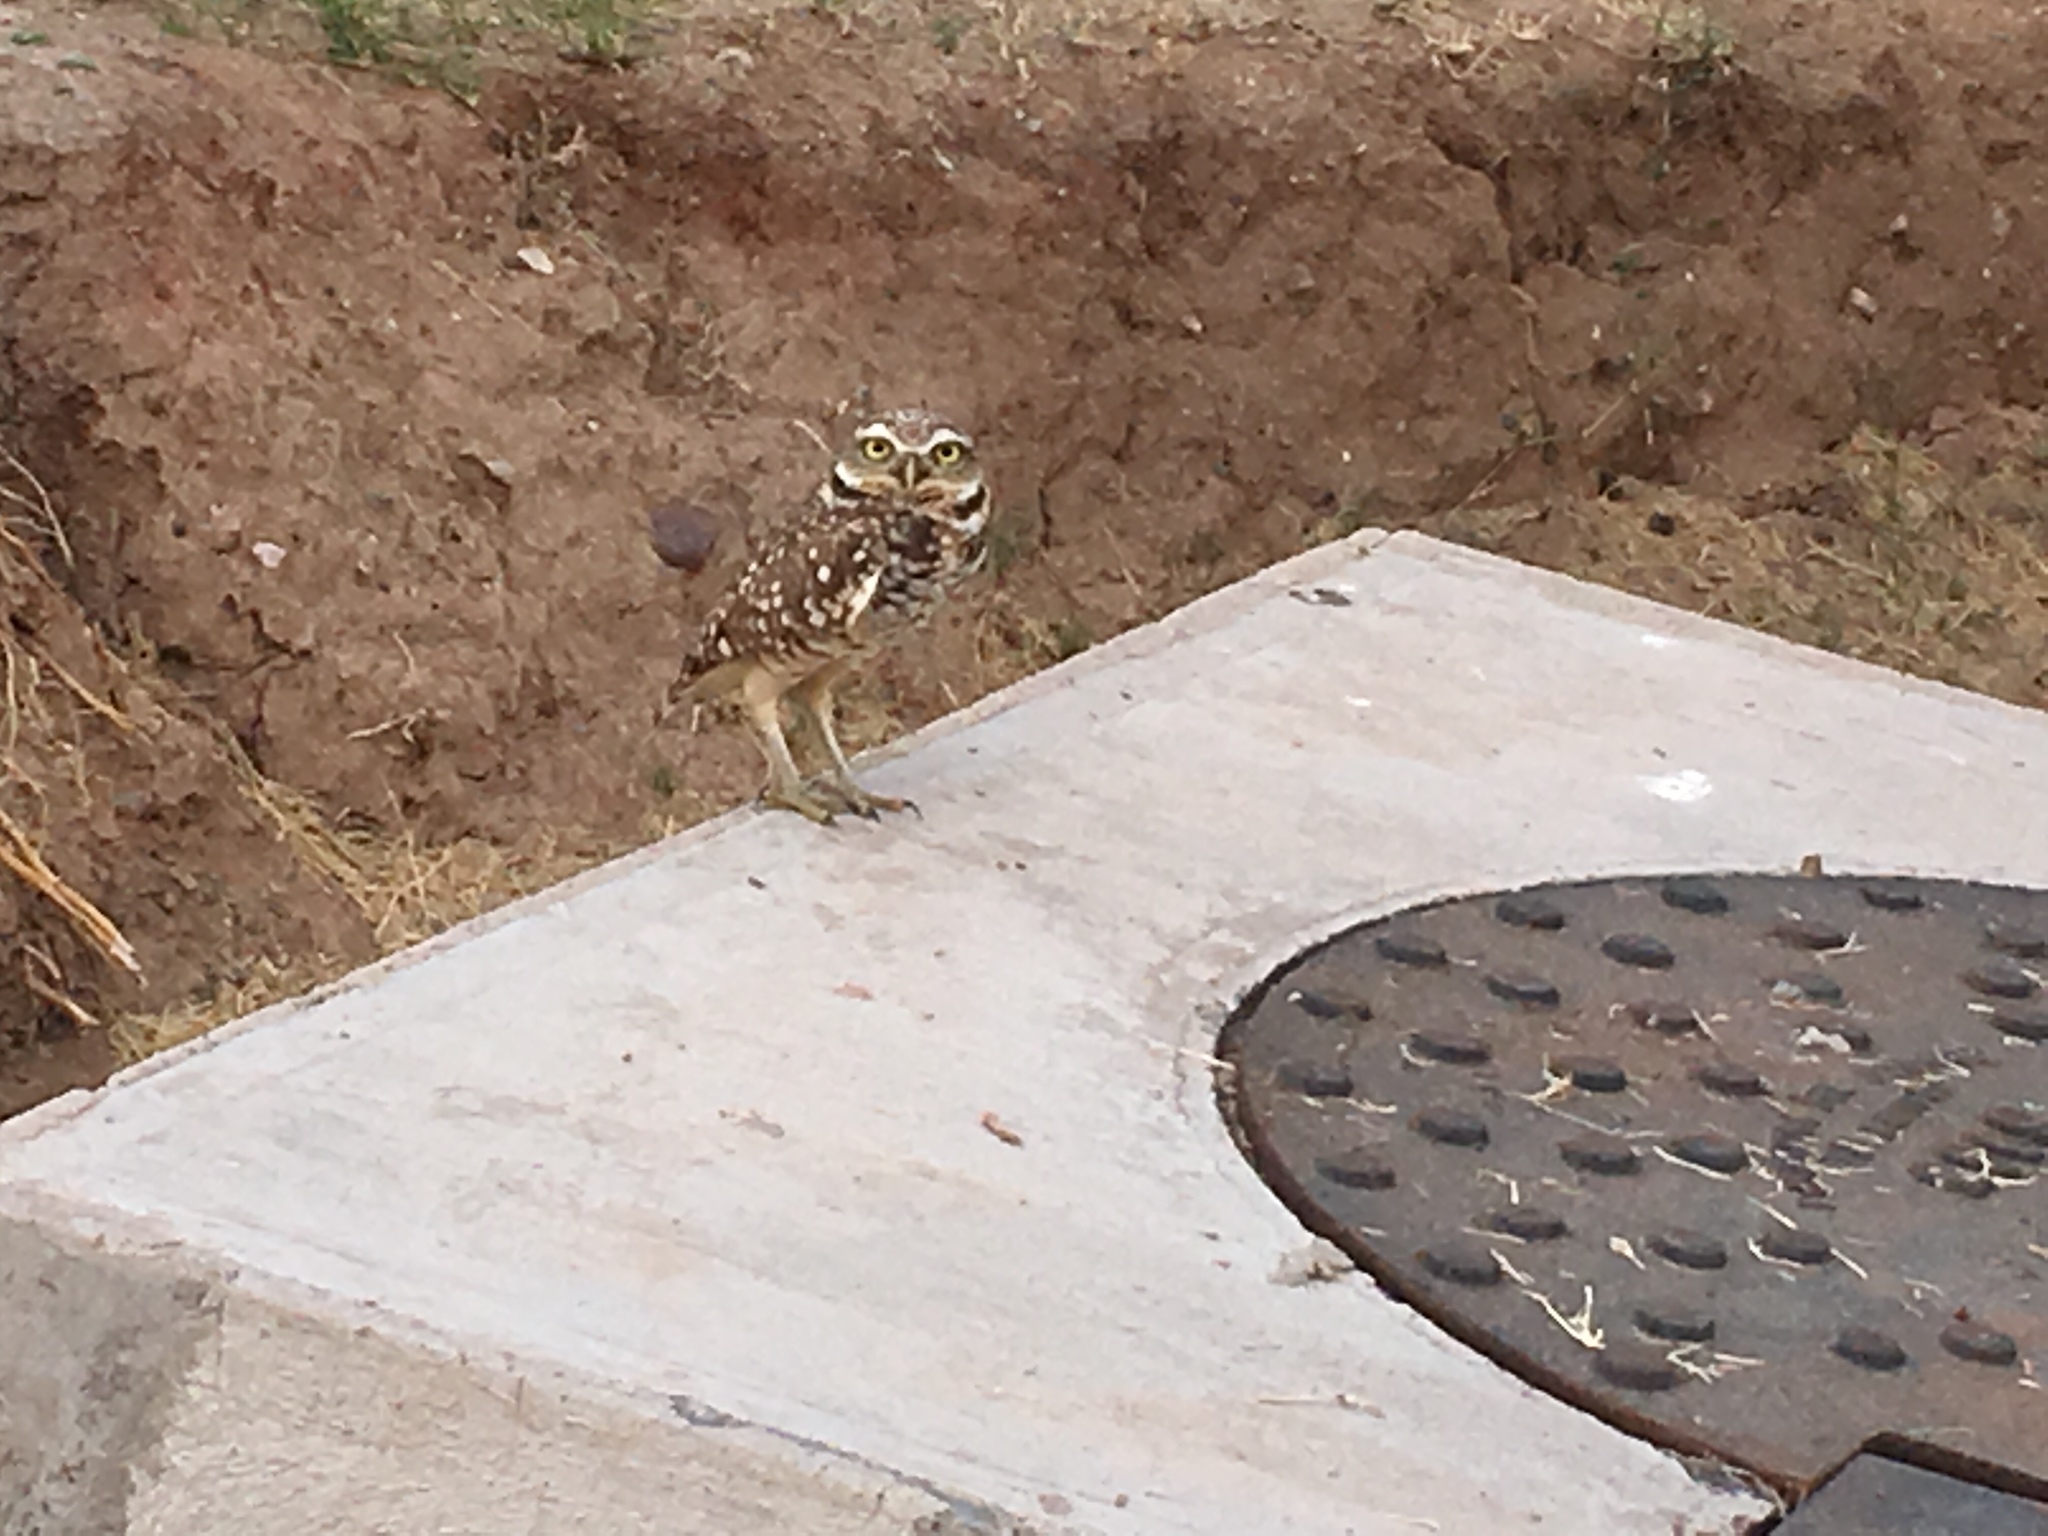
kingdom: Animalia
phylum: Chordata
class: Aves
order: Strigiformes
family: Strigidae
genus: Athene
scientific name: Athene cunicularia
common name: Burrowing owl
